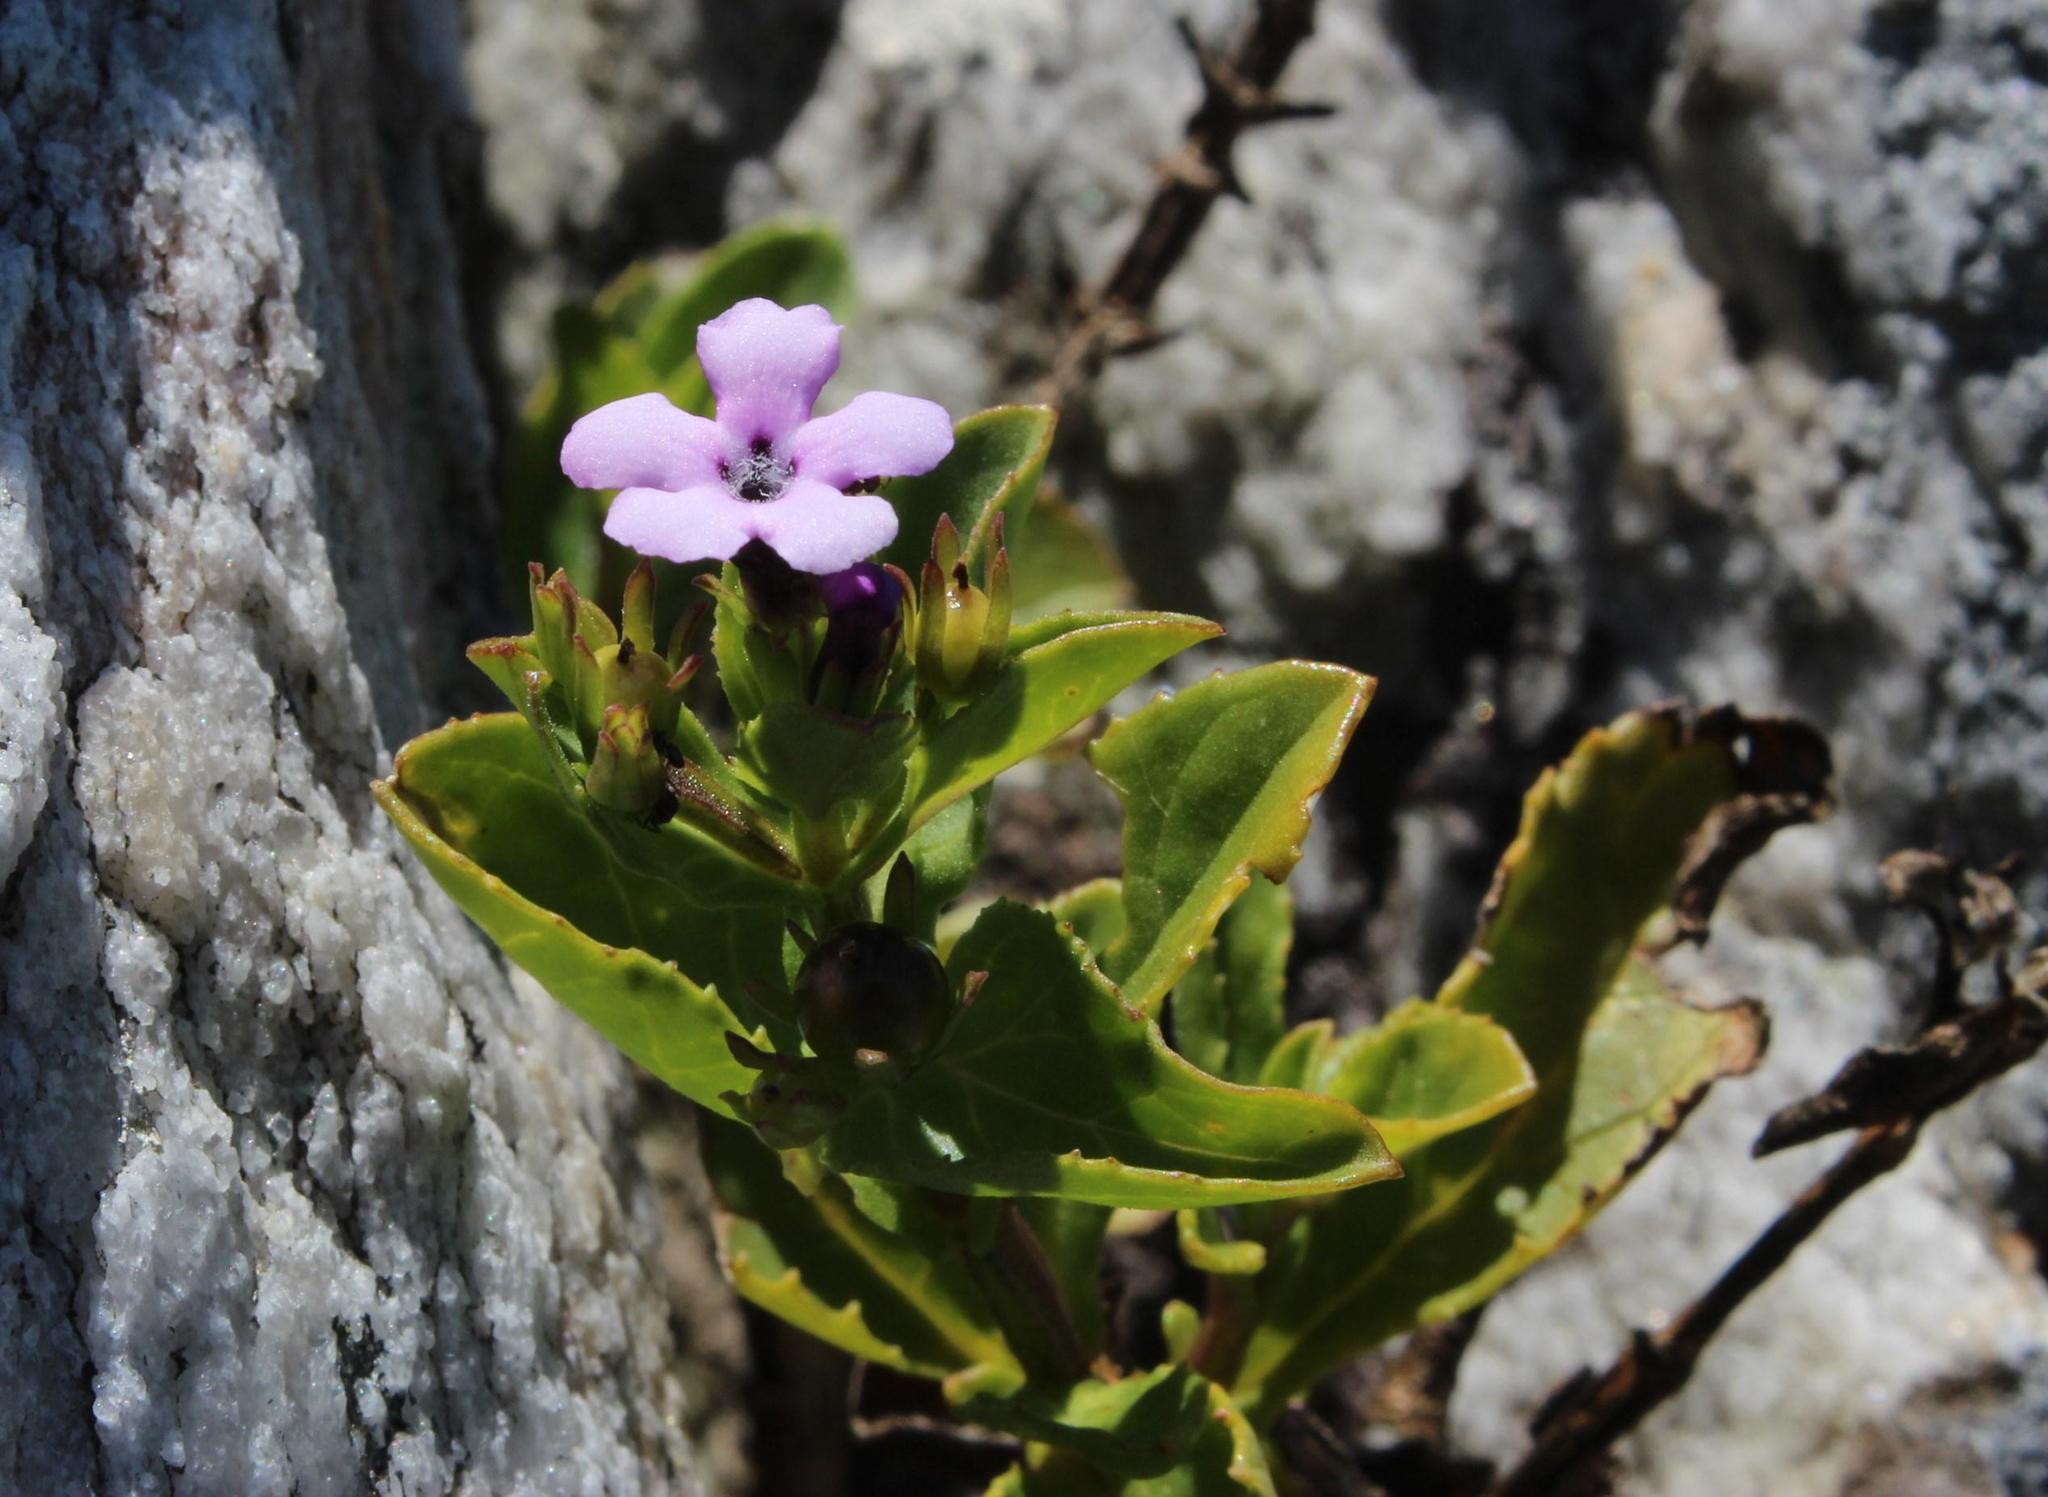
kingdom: Plantae
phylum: Tracheophyta
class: Magnoliopsida
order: Lamiales
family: Scrophulariaceae
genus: Teedia
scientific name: Teedia lucida
